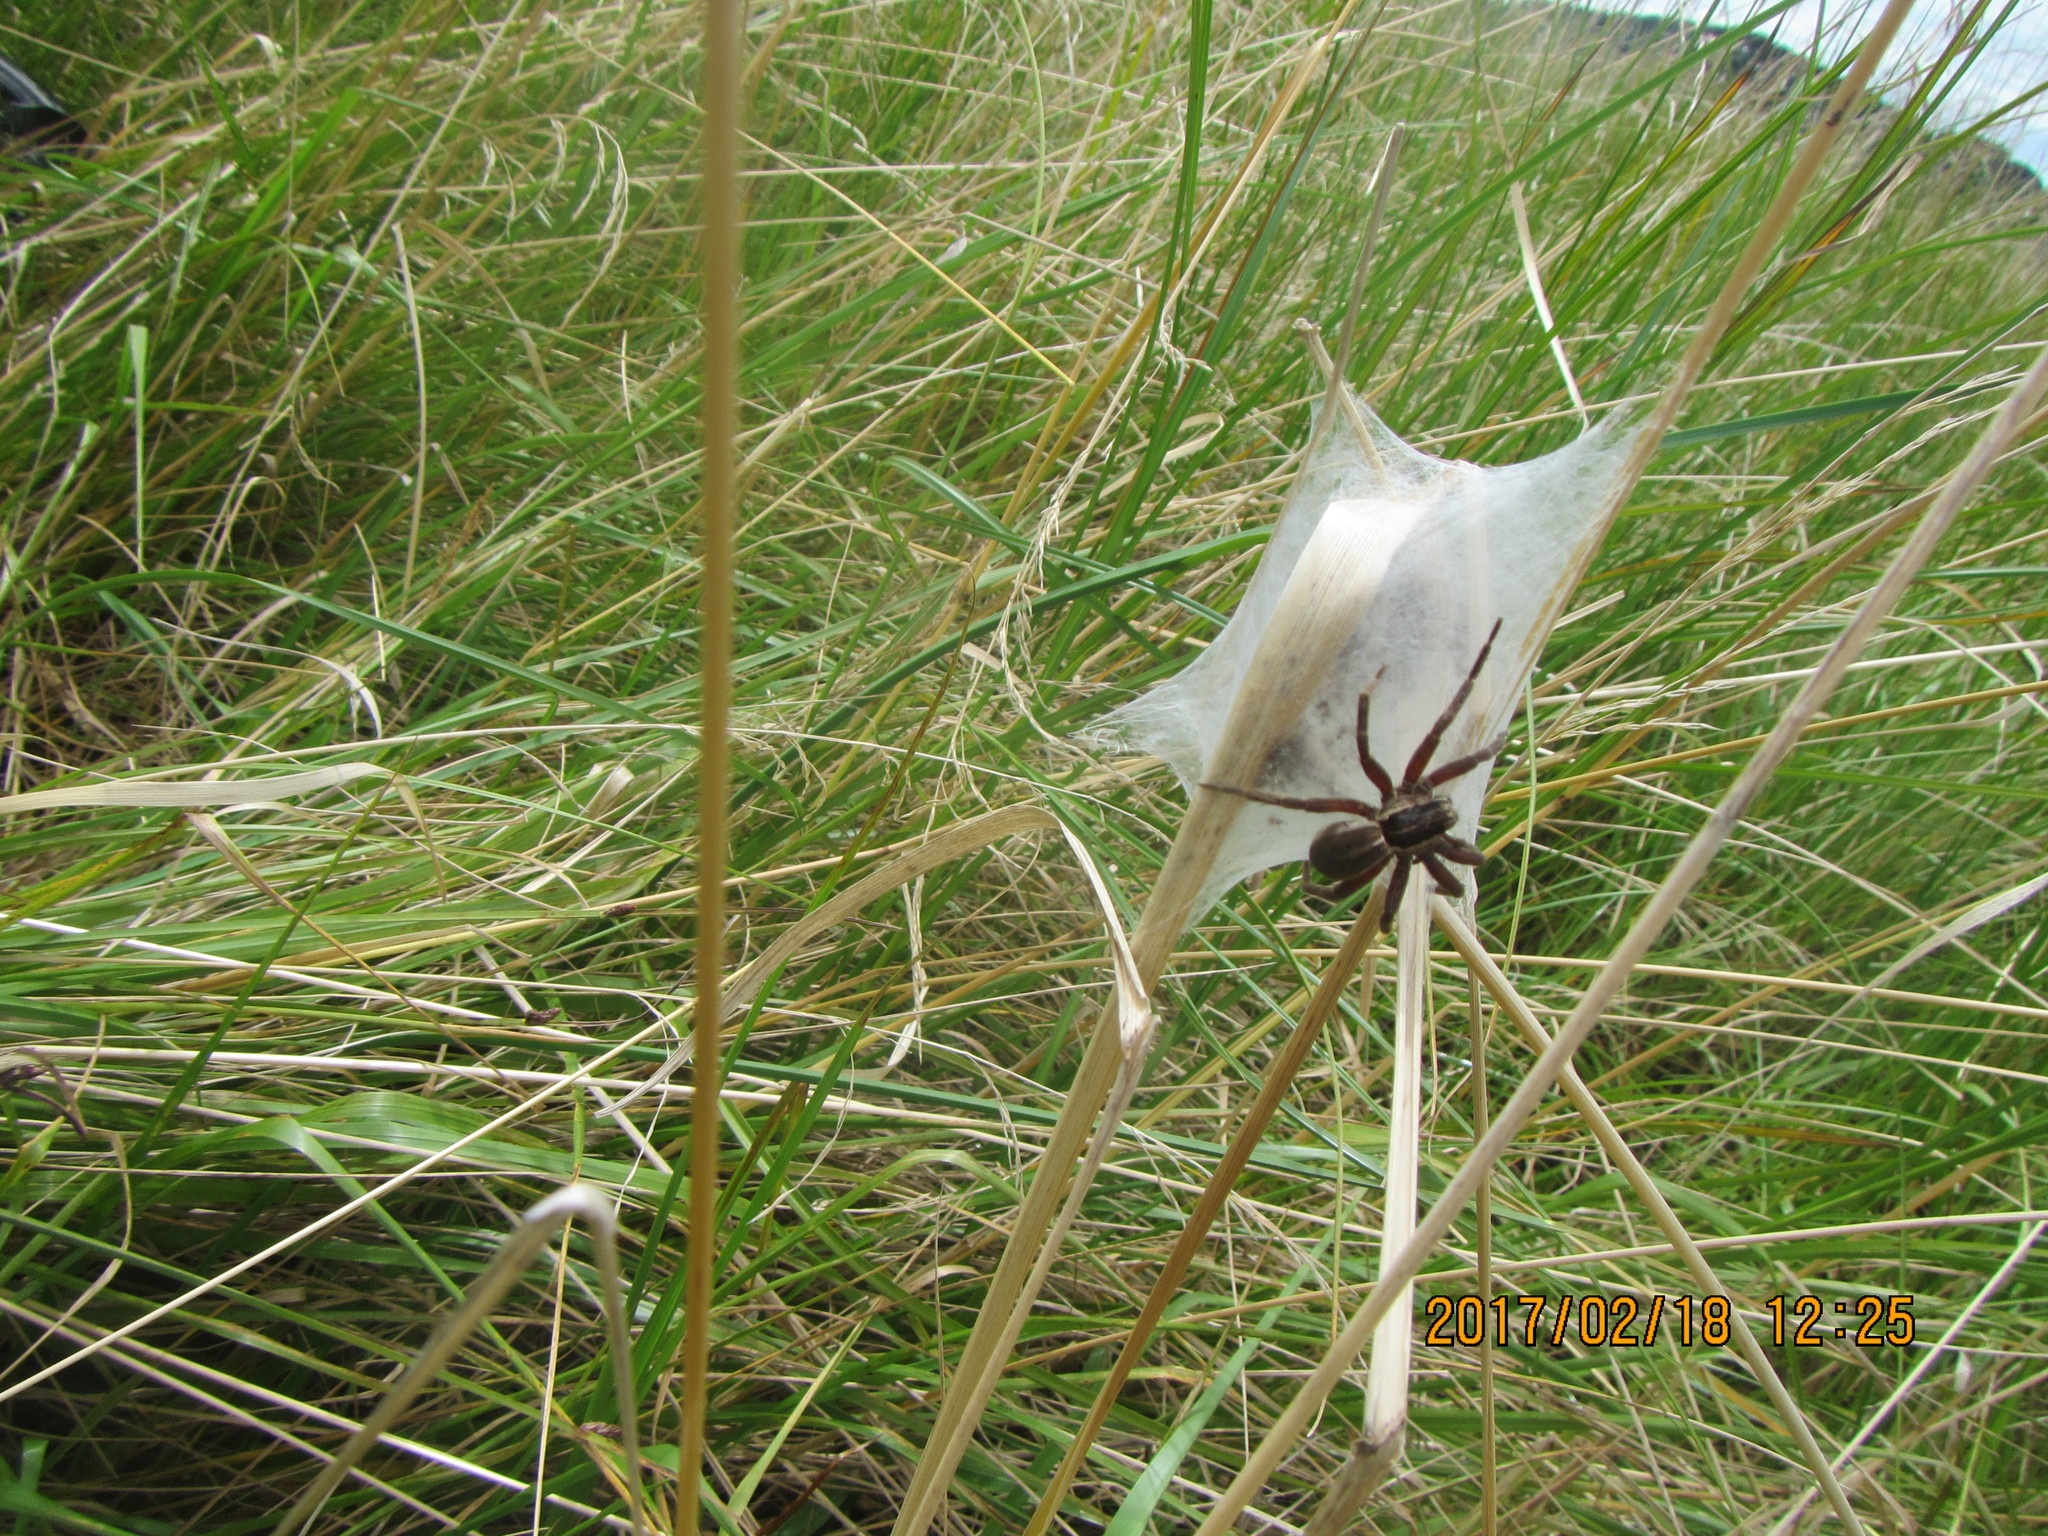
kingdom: Animalia
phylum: Arthropoda
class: Arachnida
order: Araneae
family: Pisauridae
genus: Dolomedes
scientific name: Dolomedes minor
